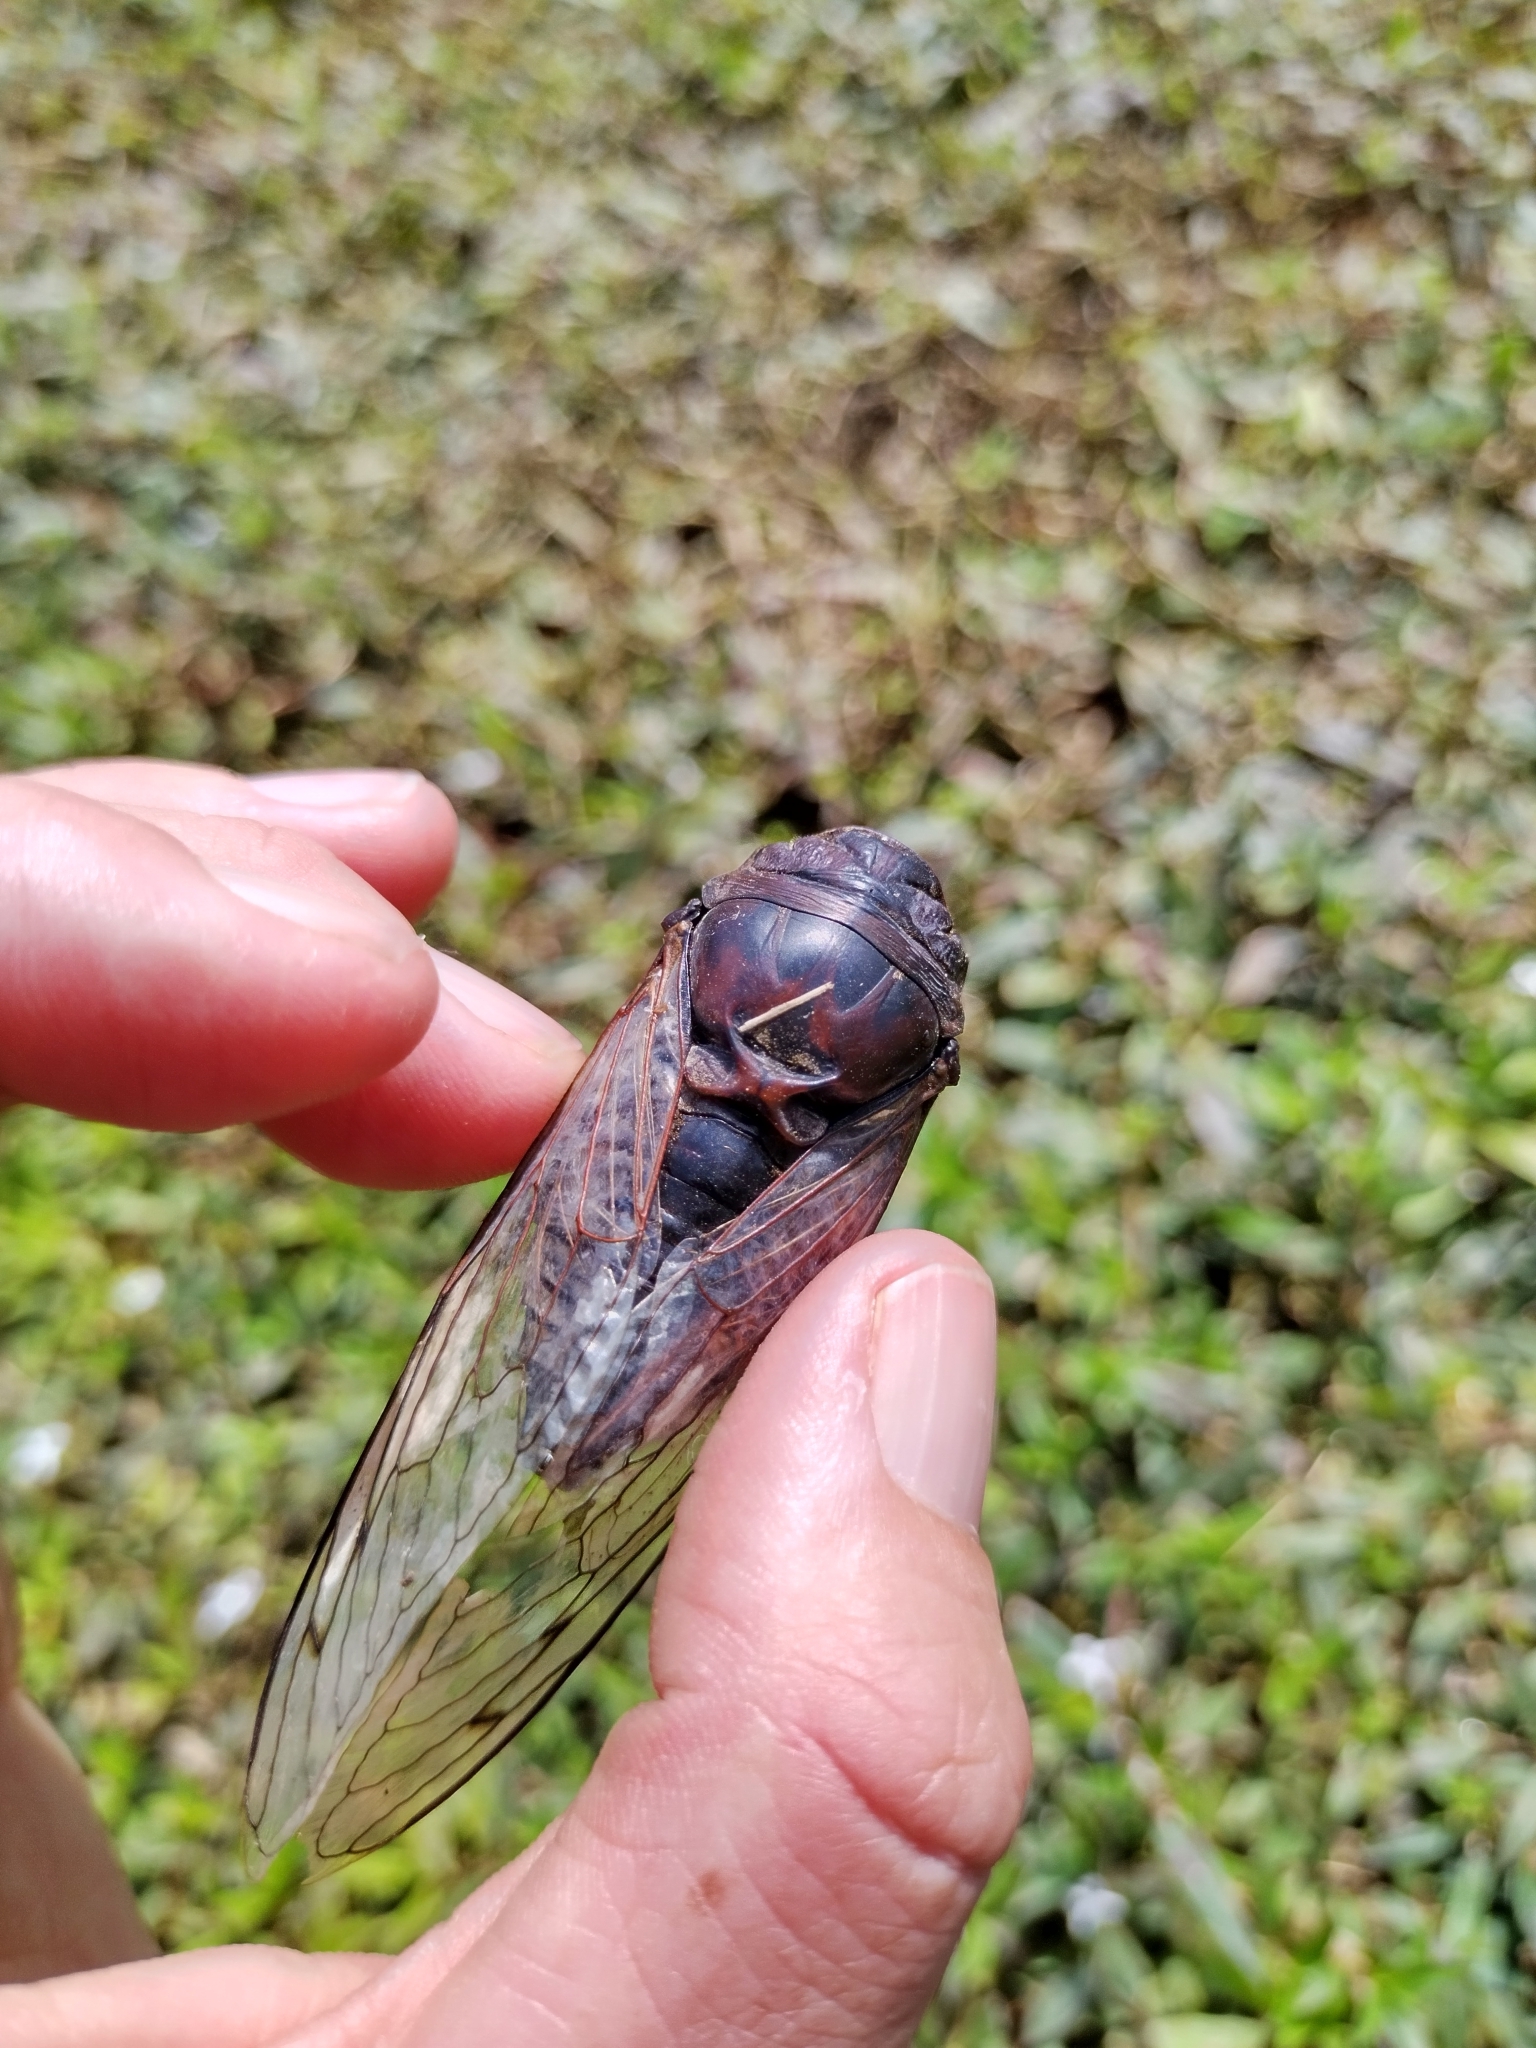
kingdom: Animalia
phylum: Arthropoda
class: Insecta
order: Hemiptera
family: Cicadidae
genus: Megatibicen
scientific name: Megatibicen resonans
